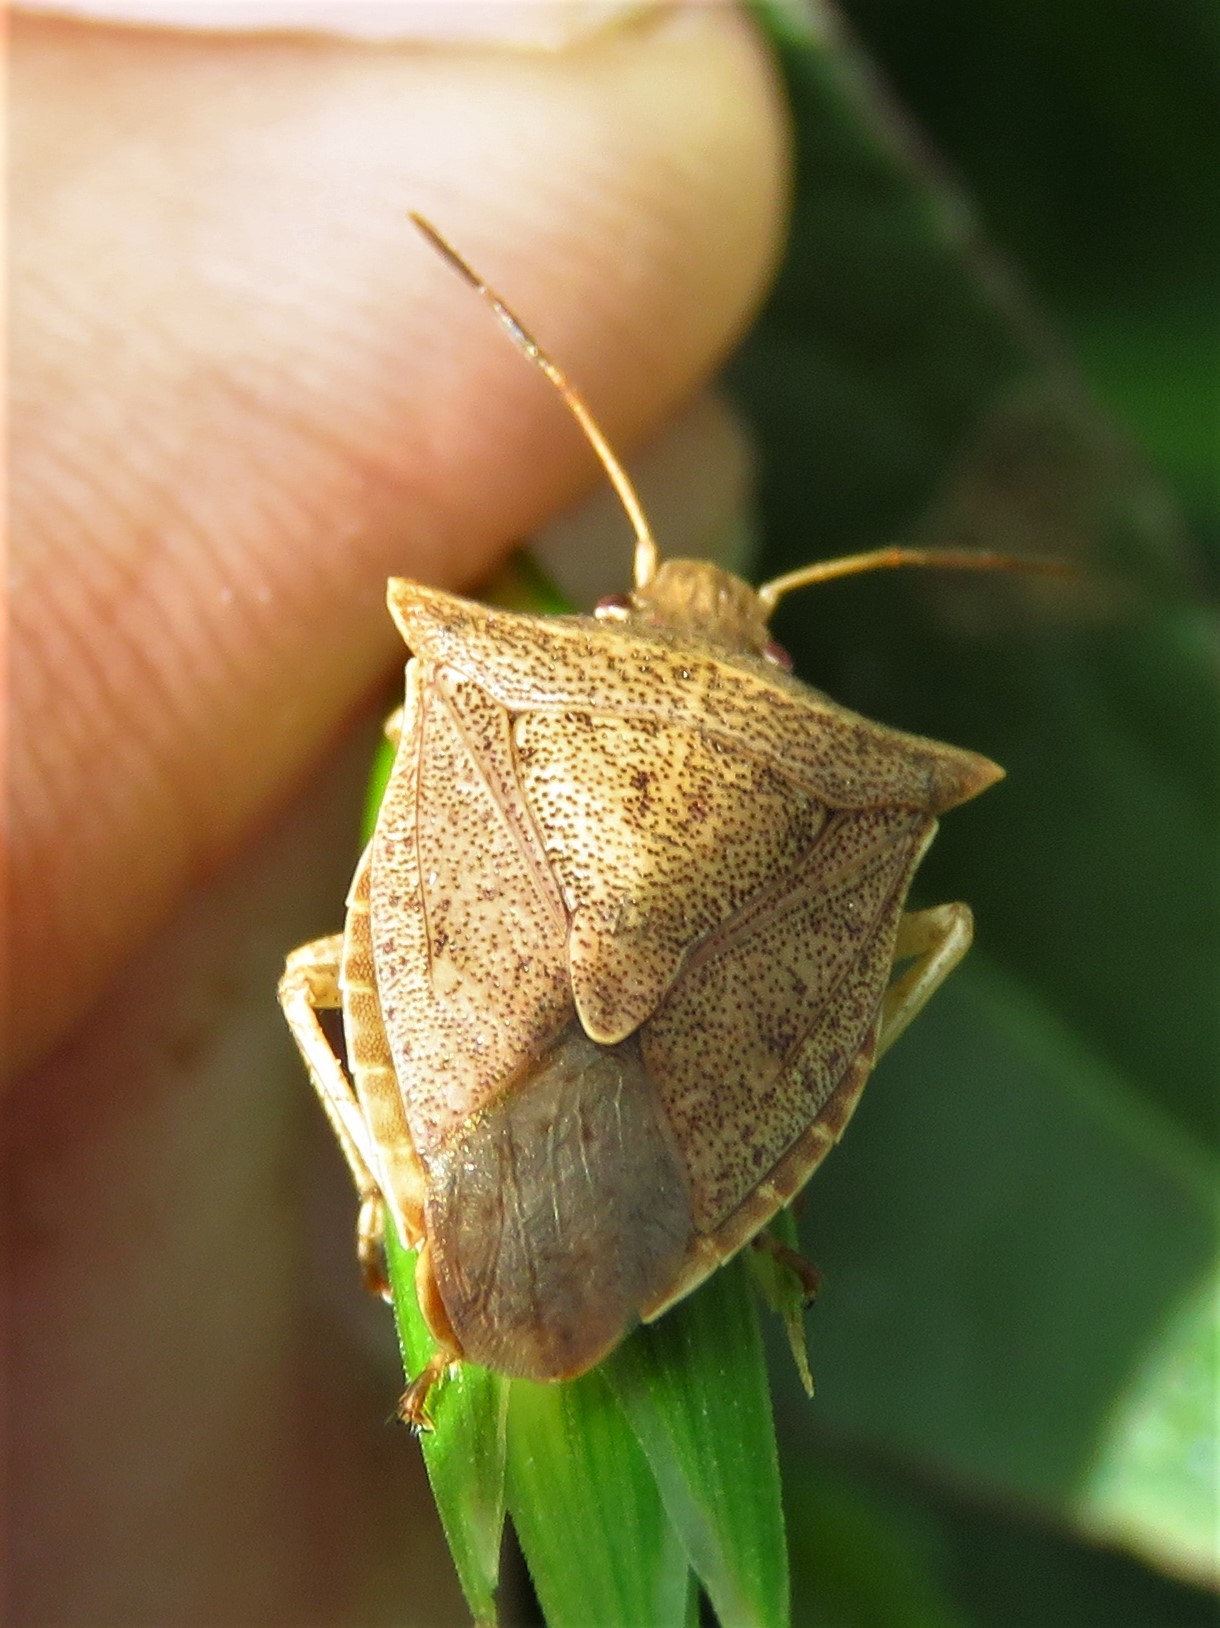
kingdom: Animalia
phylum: Arthropoda
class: Insecta
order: Hemiptera
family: Pentatomidae
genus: Euschistus
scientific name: Euschistus ictericus
